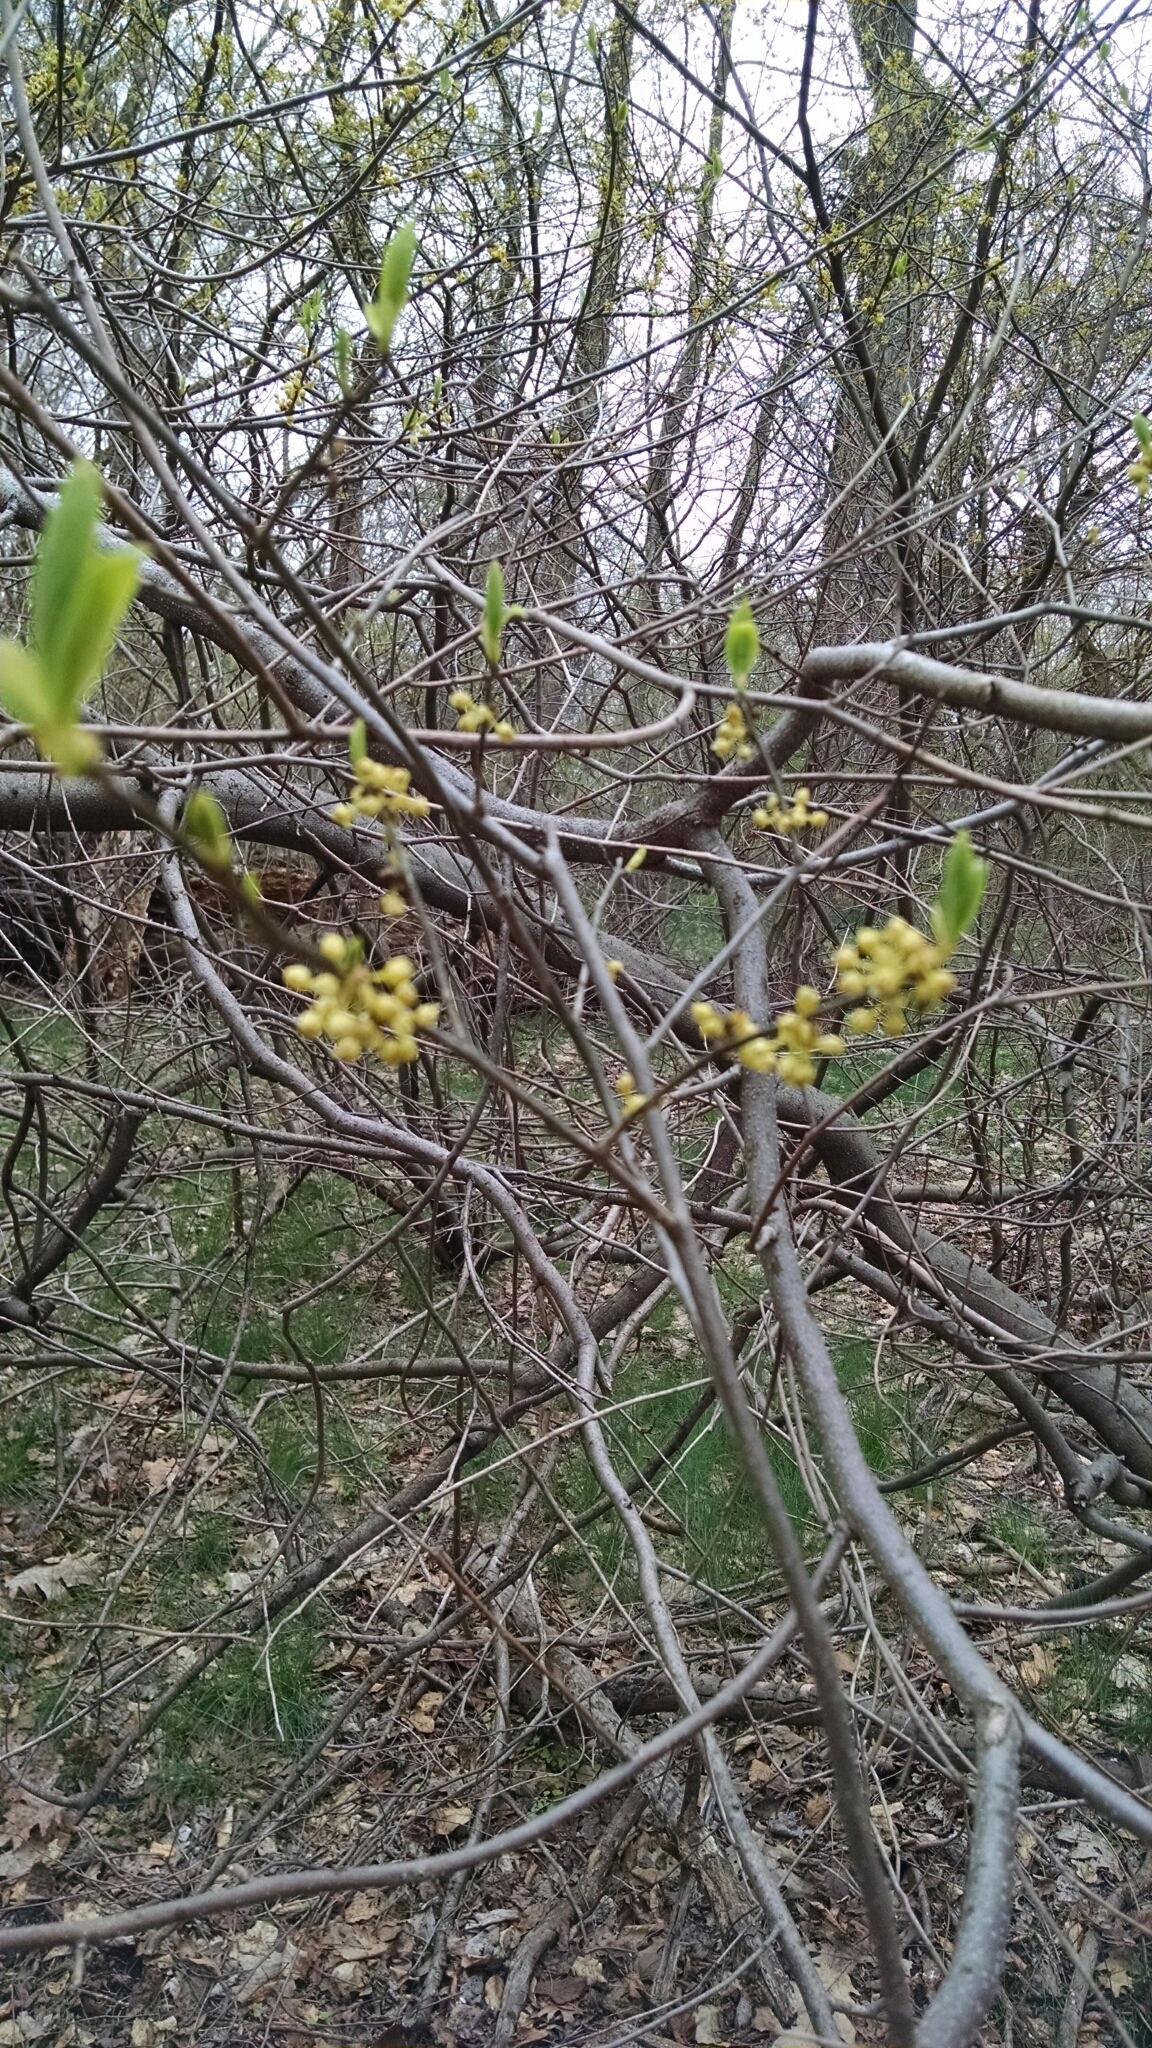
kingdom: Plantae
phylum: Tracheophyta
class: Magnoliopsida
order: Laurales
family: Lauraceae
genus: Lindera
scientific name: Lindera benzoin
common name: Spicebush
